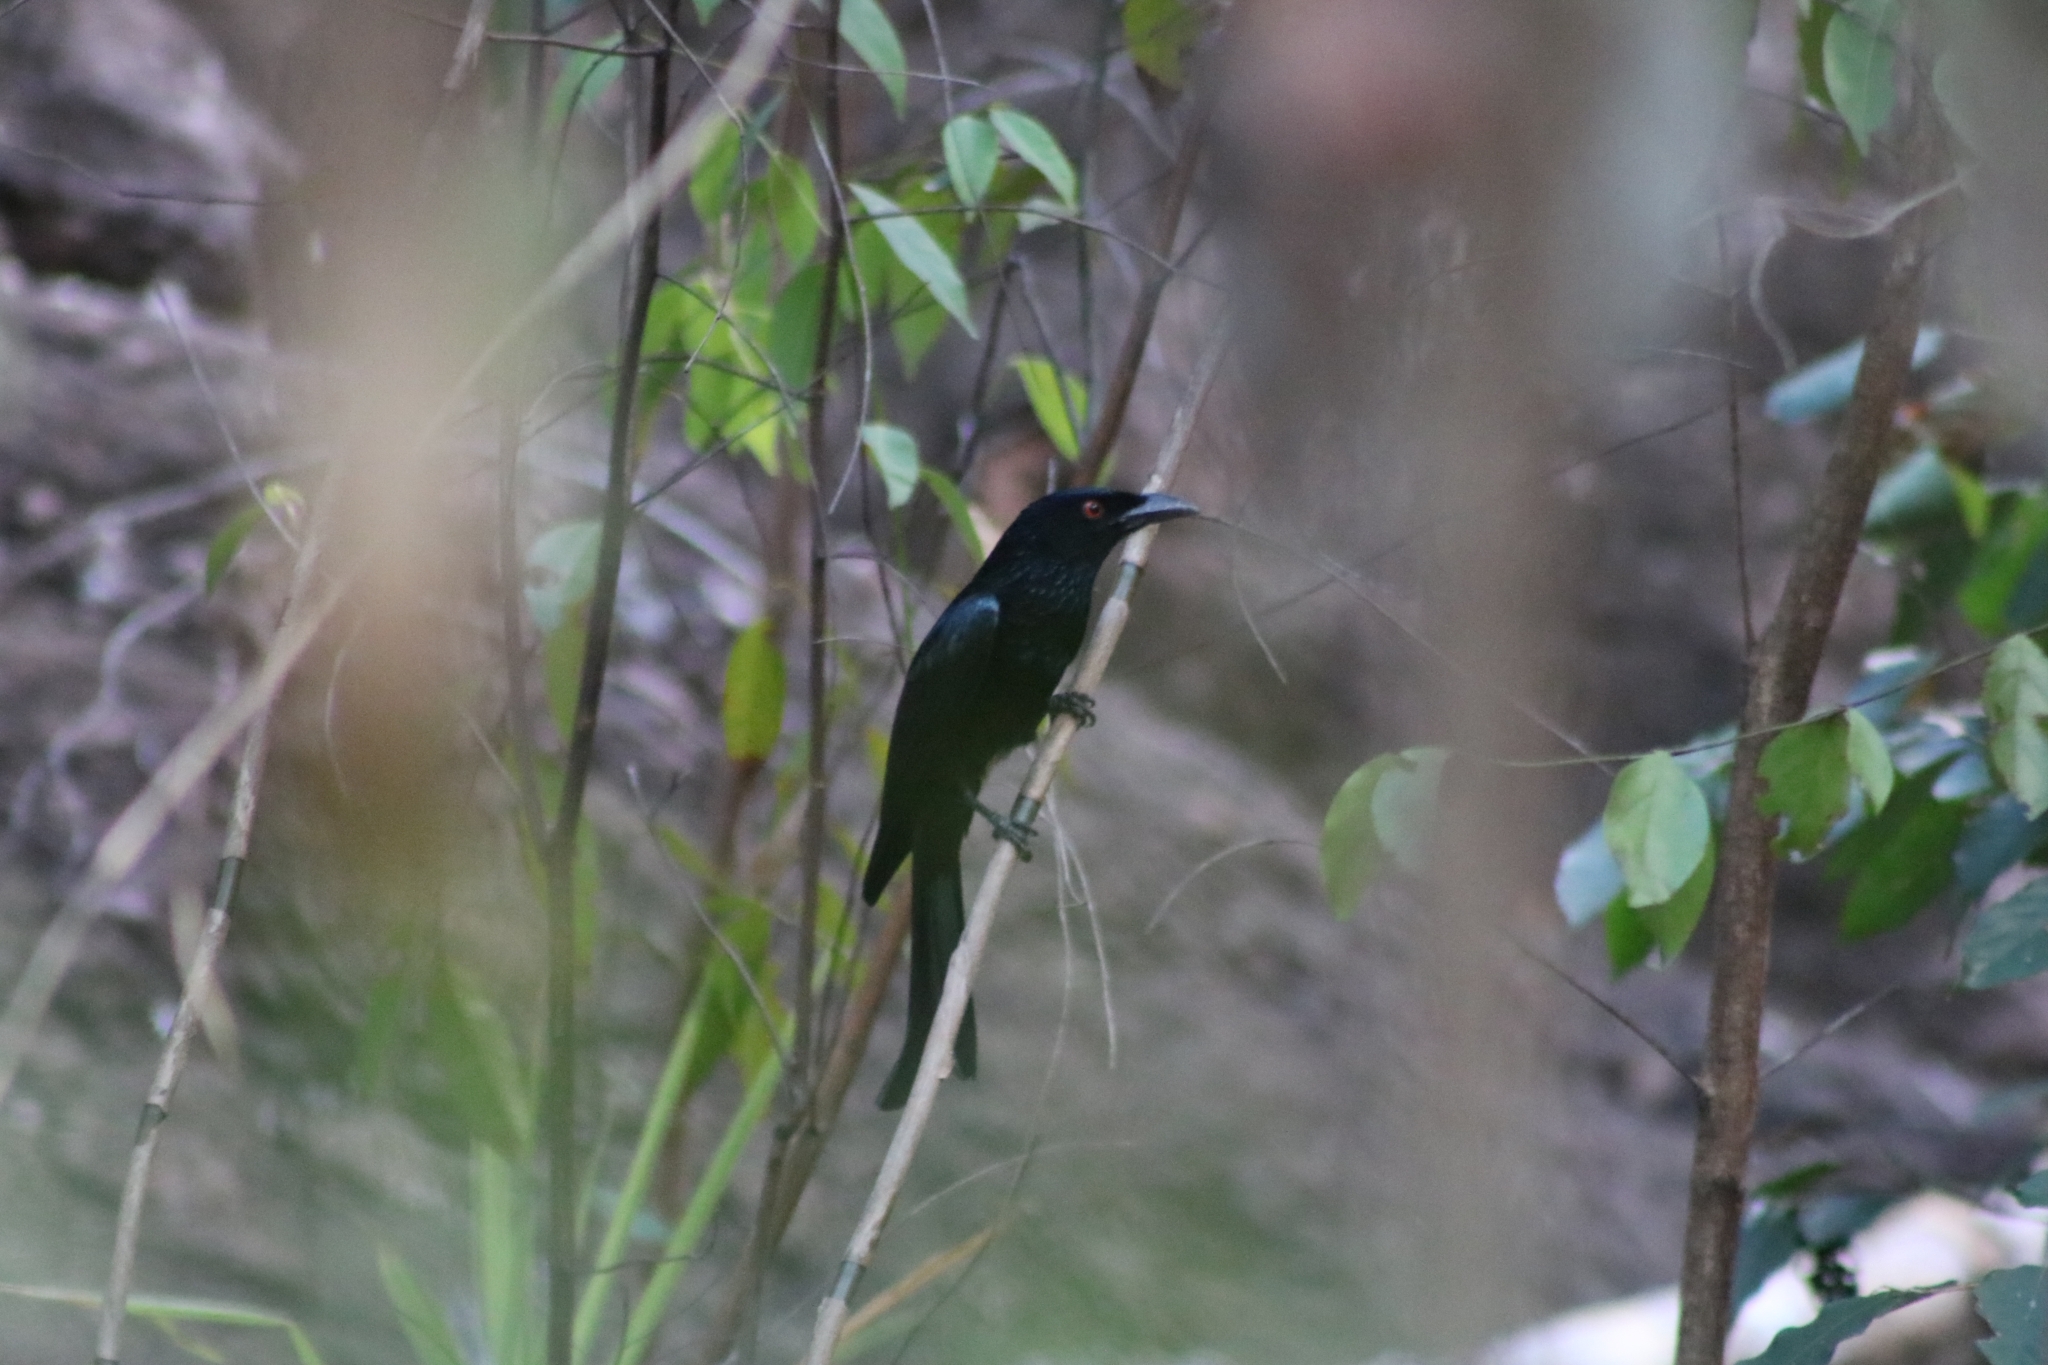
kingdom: Animalia
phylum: Chordata
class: Aves
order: Passeriformes
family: Dicruridae
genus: Dicrurus
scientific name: Dicrurus bracteatus
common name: Spangled drongo
